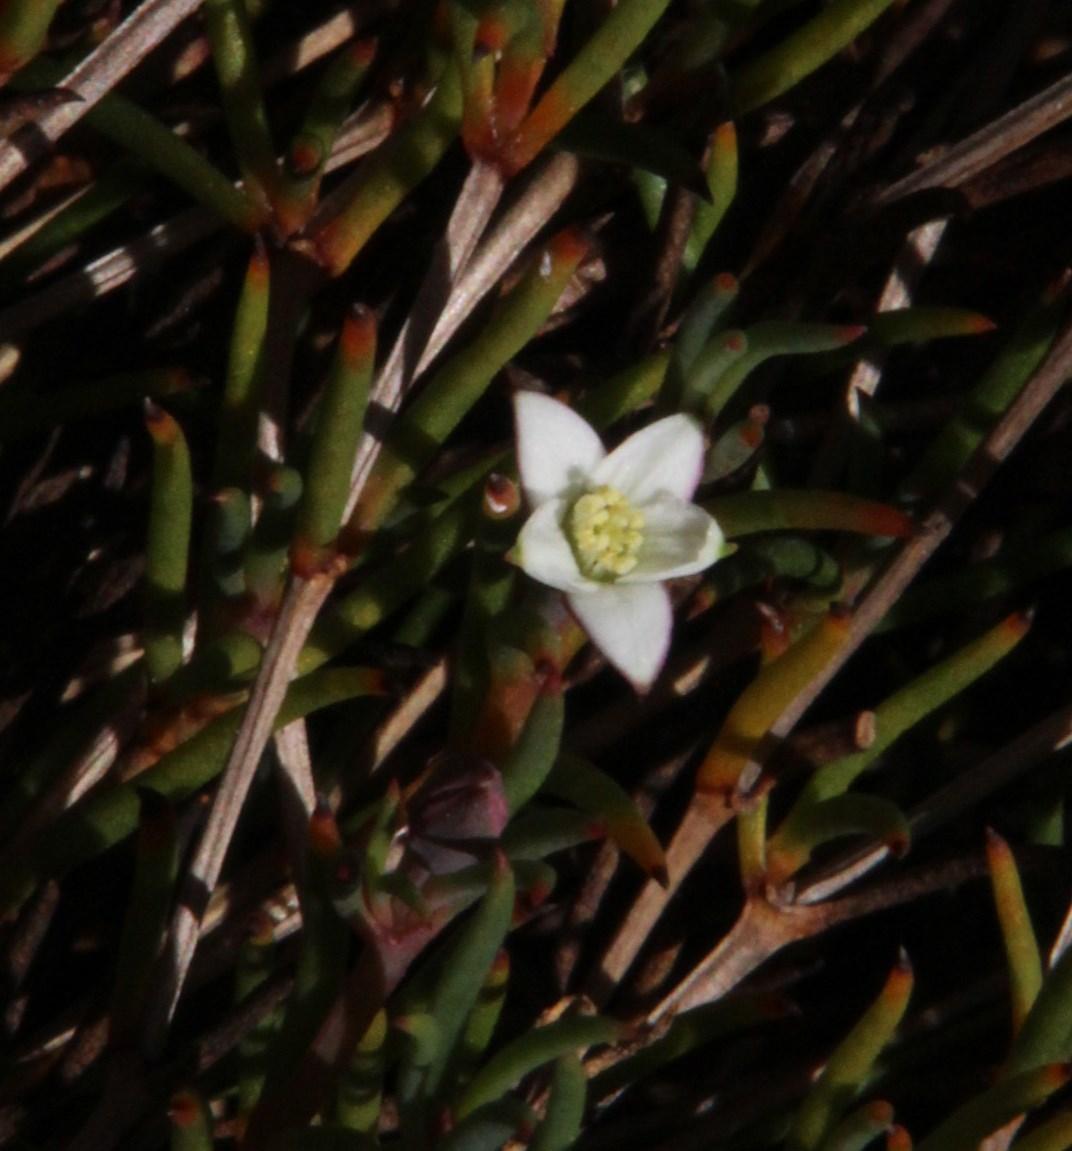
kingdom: Plantae
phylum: Tracheophyta
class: Magnoliopsida
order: Caryophyllales
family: Aizoaceae
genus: Acrosanthes
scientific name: Acrosanthes teretifolia
